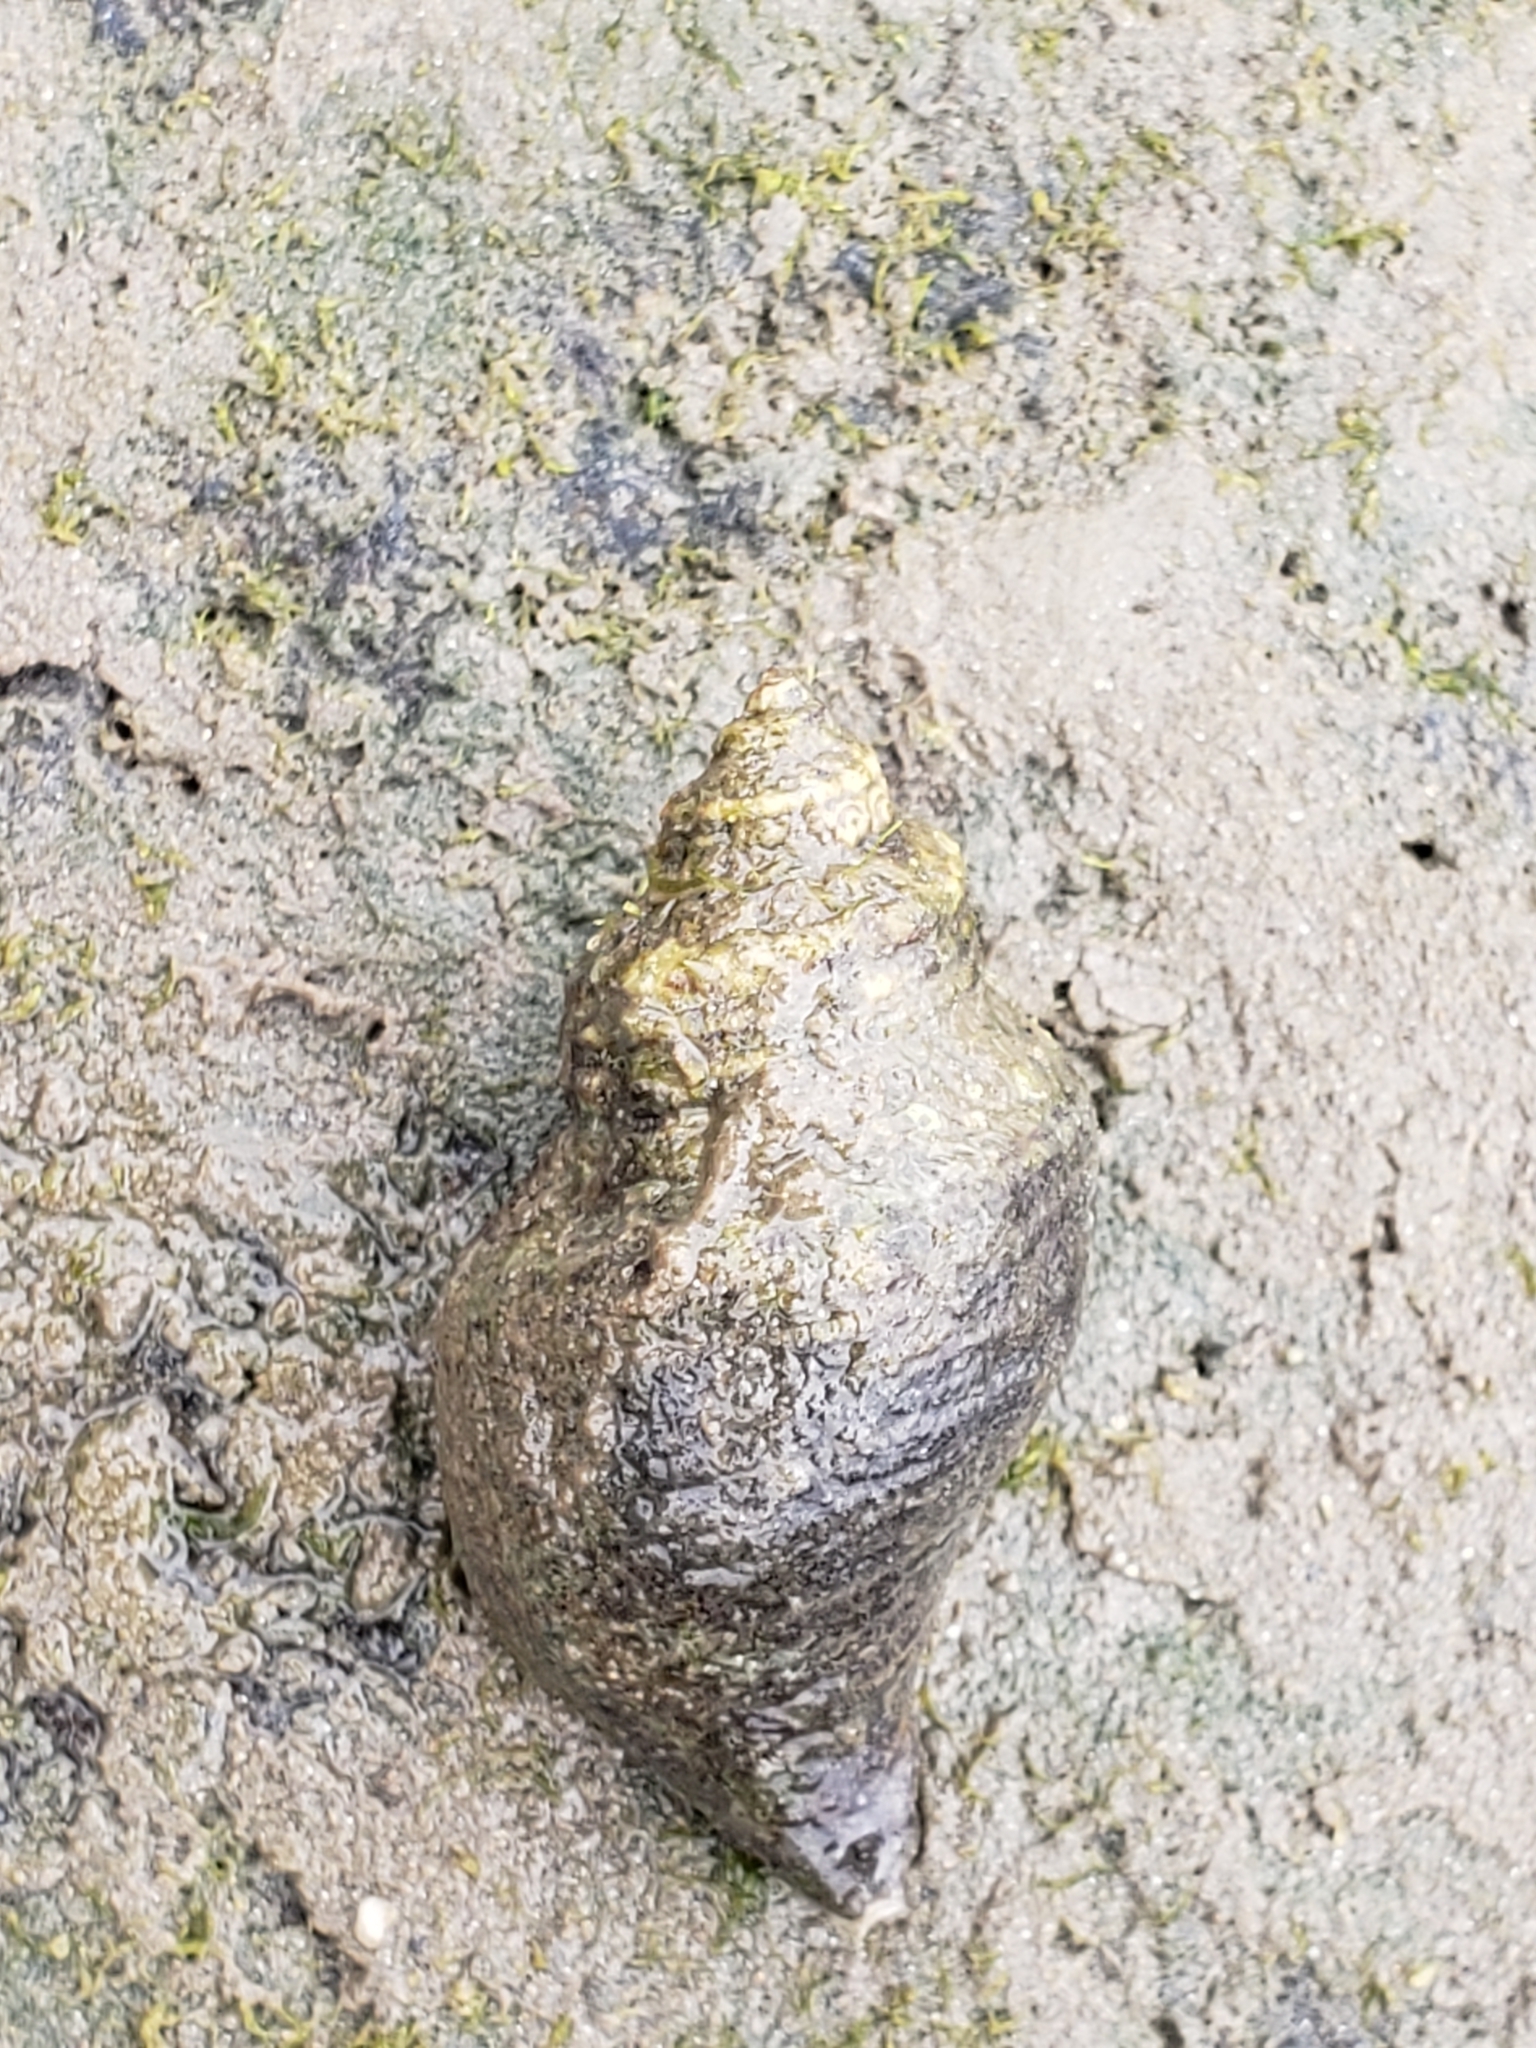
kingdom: Animalia
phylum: Mollusca
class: Gastropoda
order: Neogastropoda
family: Muricidae
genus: Acanthinucella
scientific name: Acanthinucella spirata
